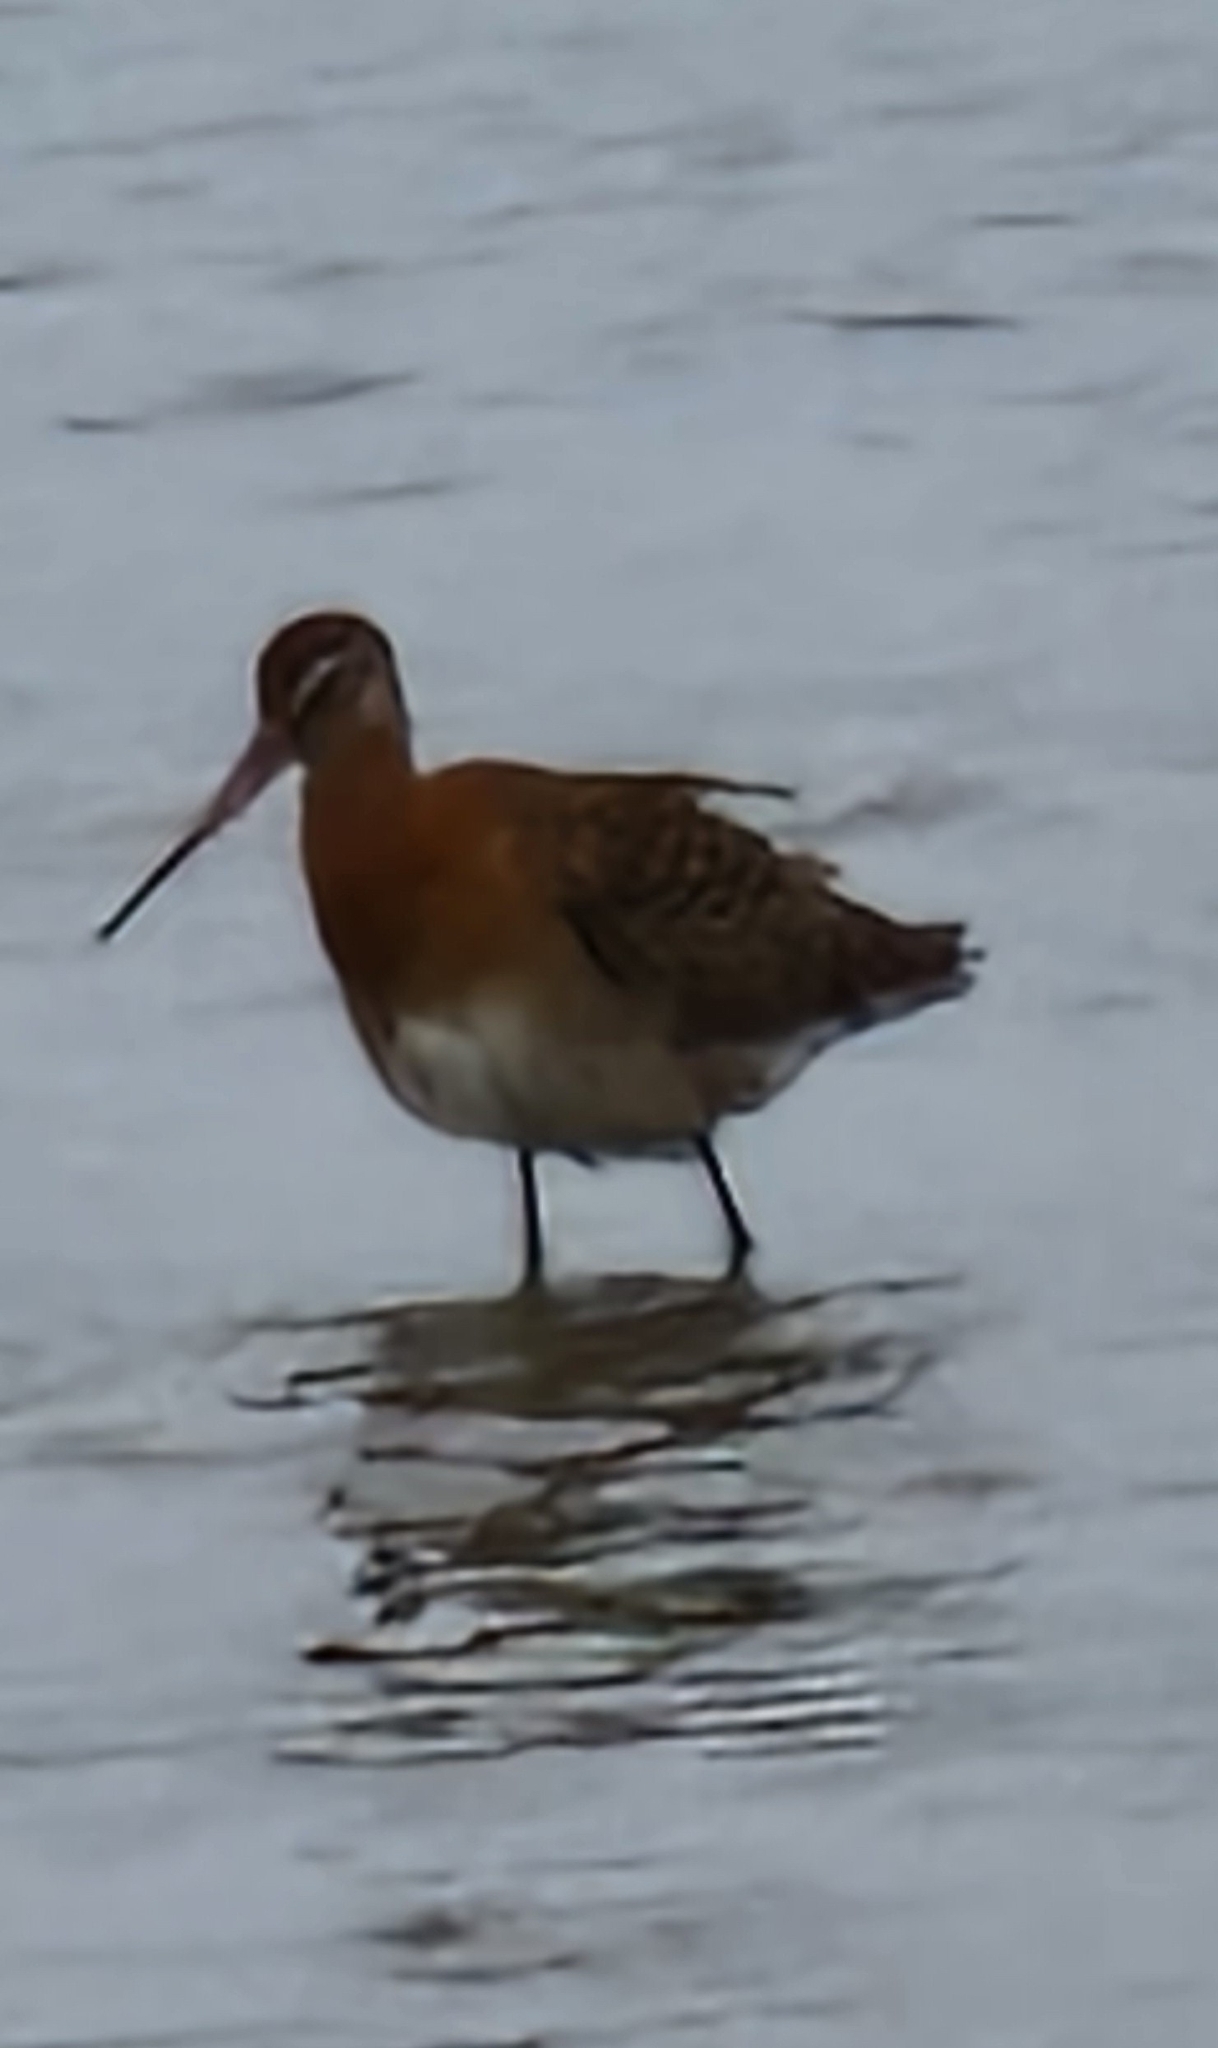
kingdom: Animalia
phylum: Chordata
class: Aves
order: Charadriiformes
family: Scolopacidae
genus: Limosa
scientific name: Limosa limosa
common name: Black-tailed godwit
